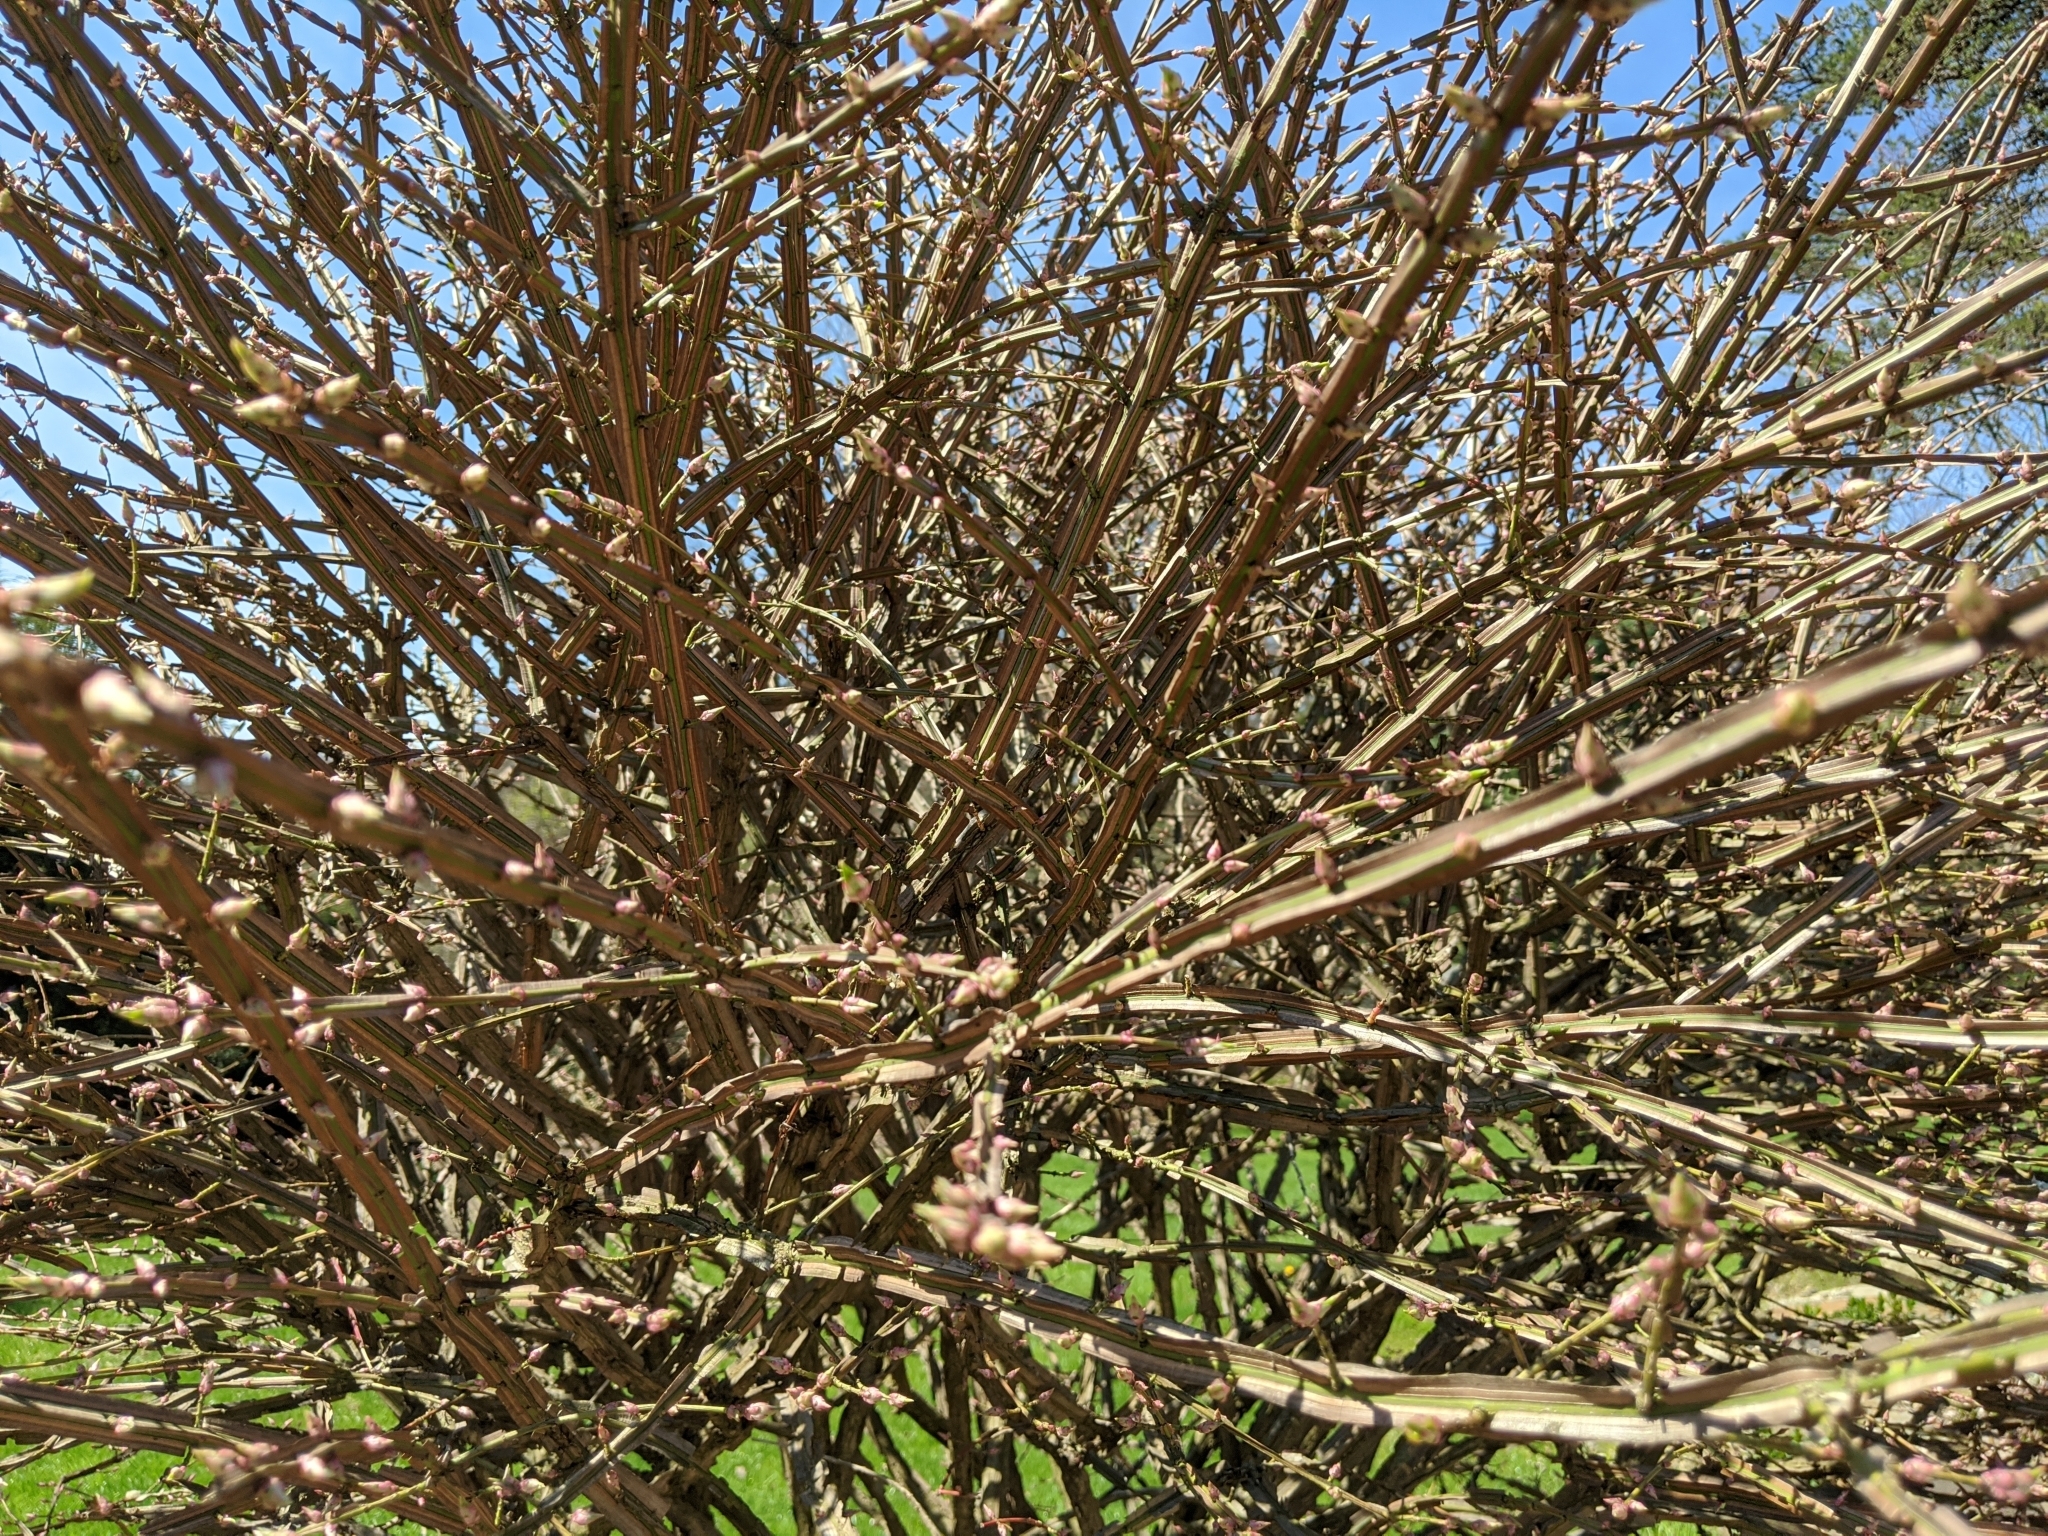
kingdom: Plantae
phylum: Tracheophyta
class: Magnoliopsida
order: Celastrales
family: Celastraceae
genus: Euonymus
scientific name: Euonymus alatus
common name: Winged euonymus
